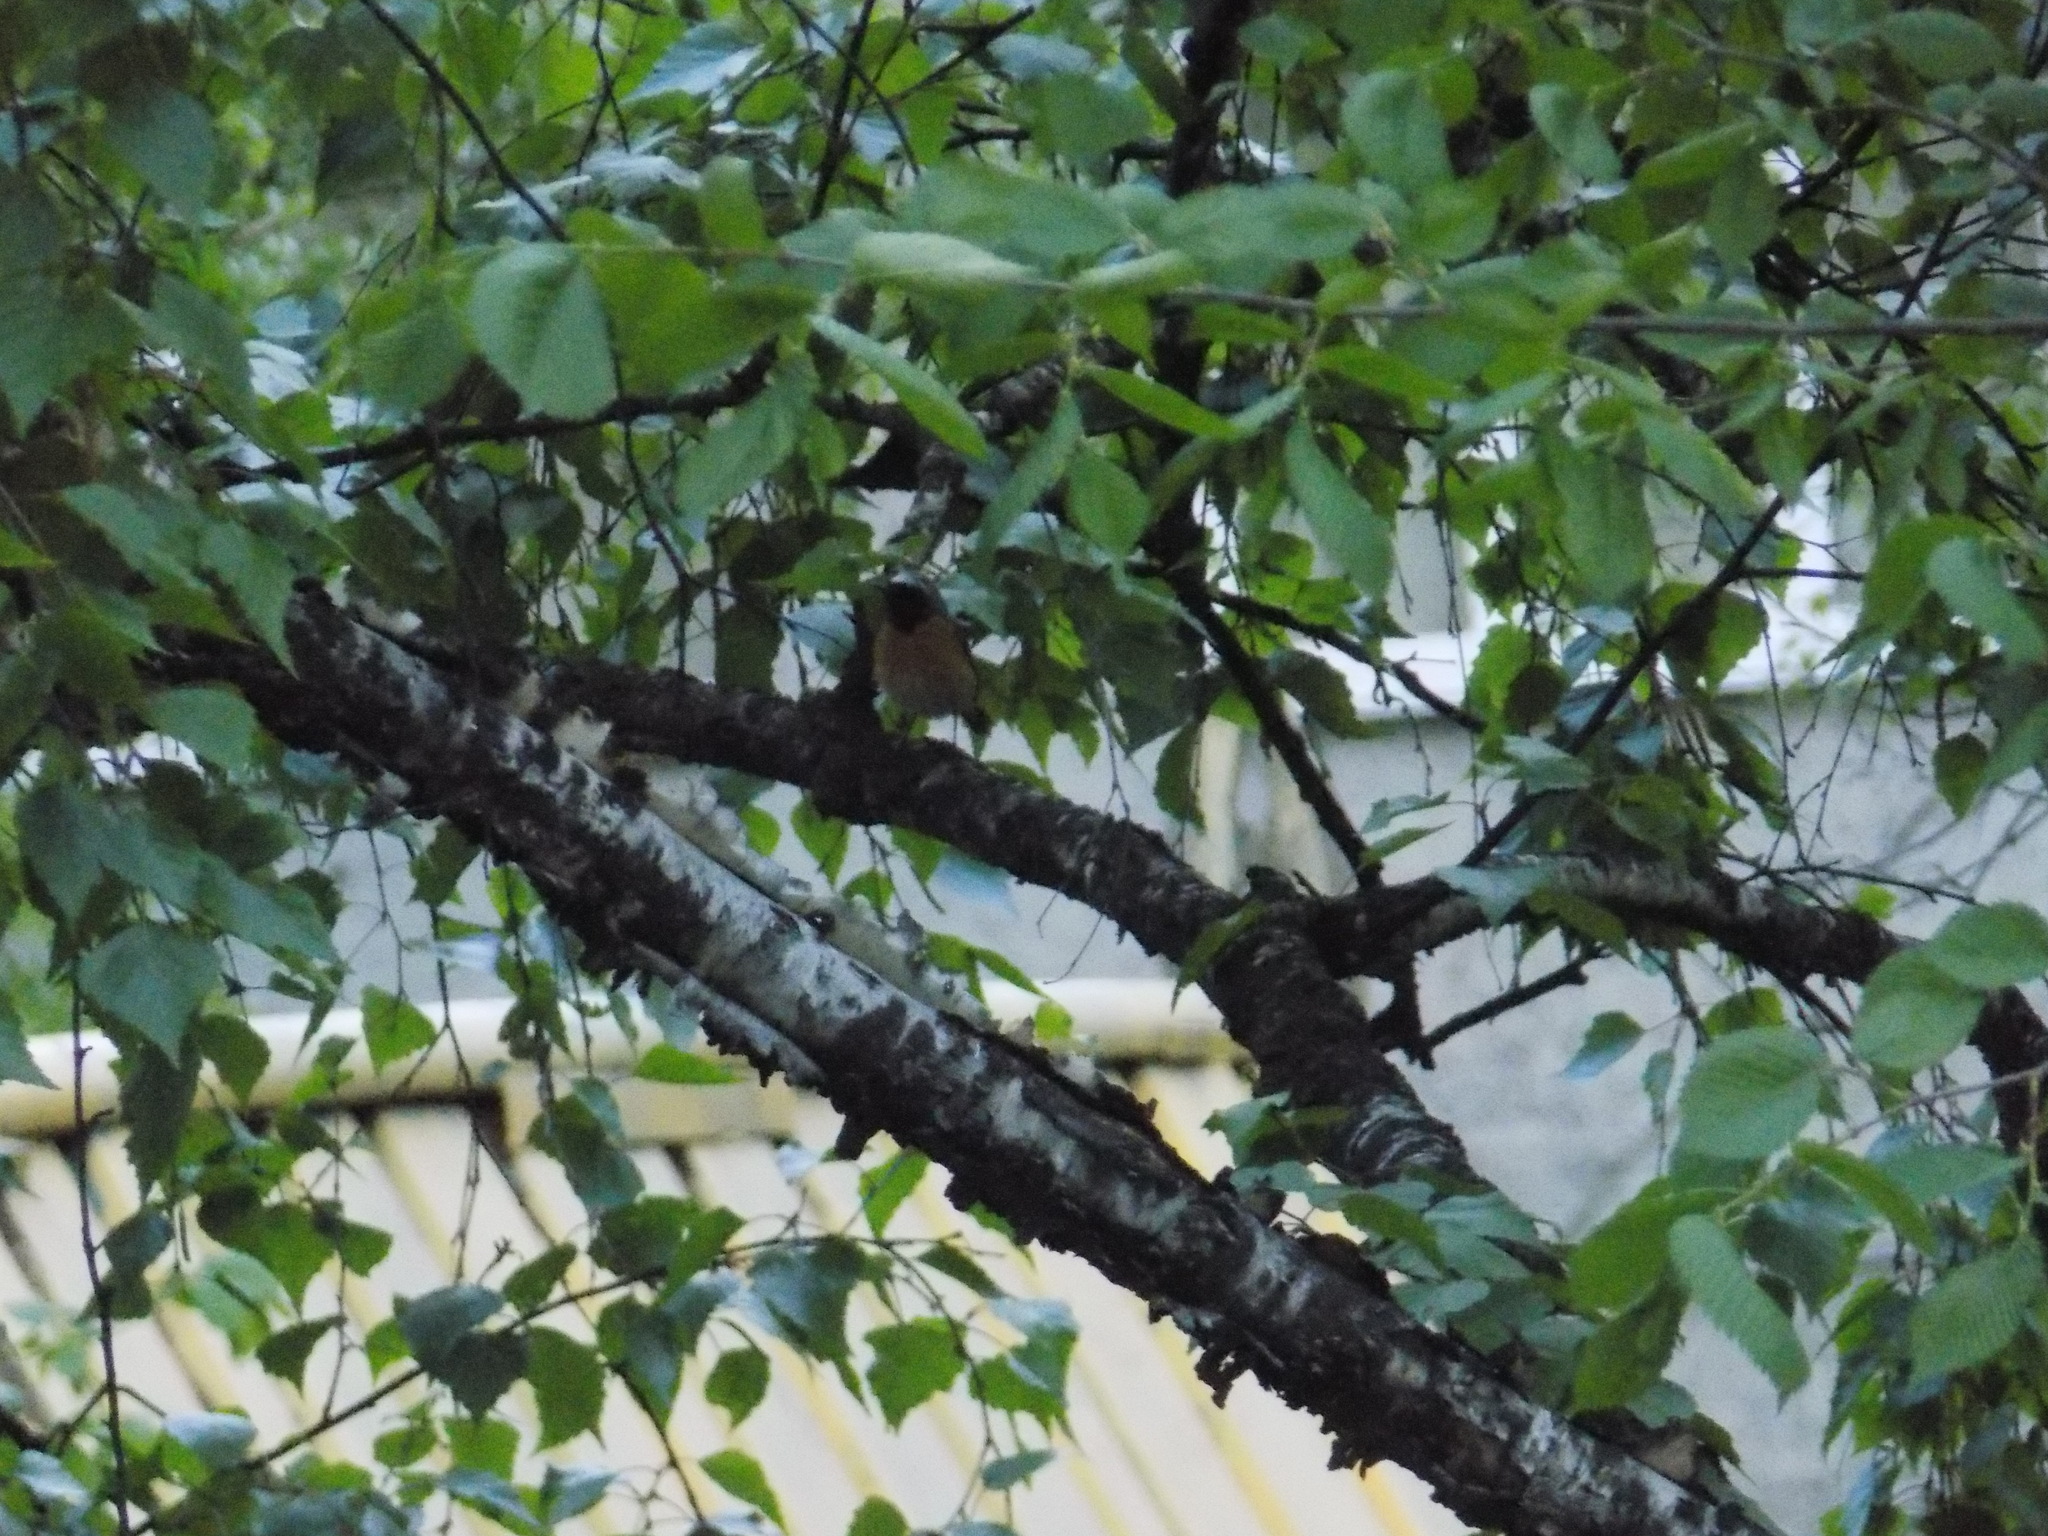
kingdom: Animalia
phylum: Chordata
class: Aves
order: Passeriformes
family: Muscicapidae
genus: Phoenicurus
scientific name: Phoenicurus phoenicurus
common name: Common redstart
